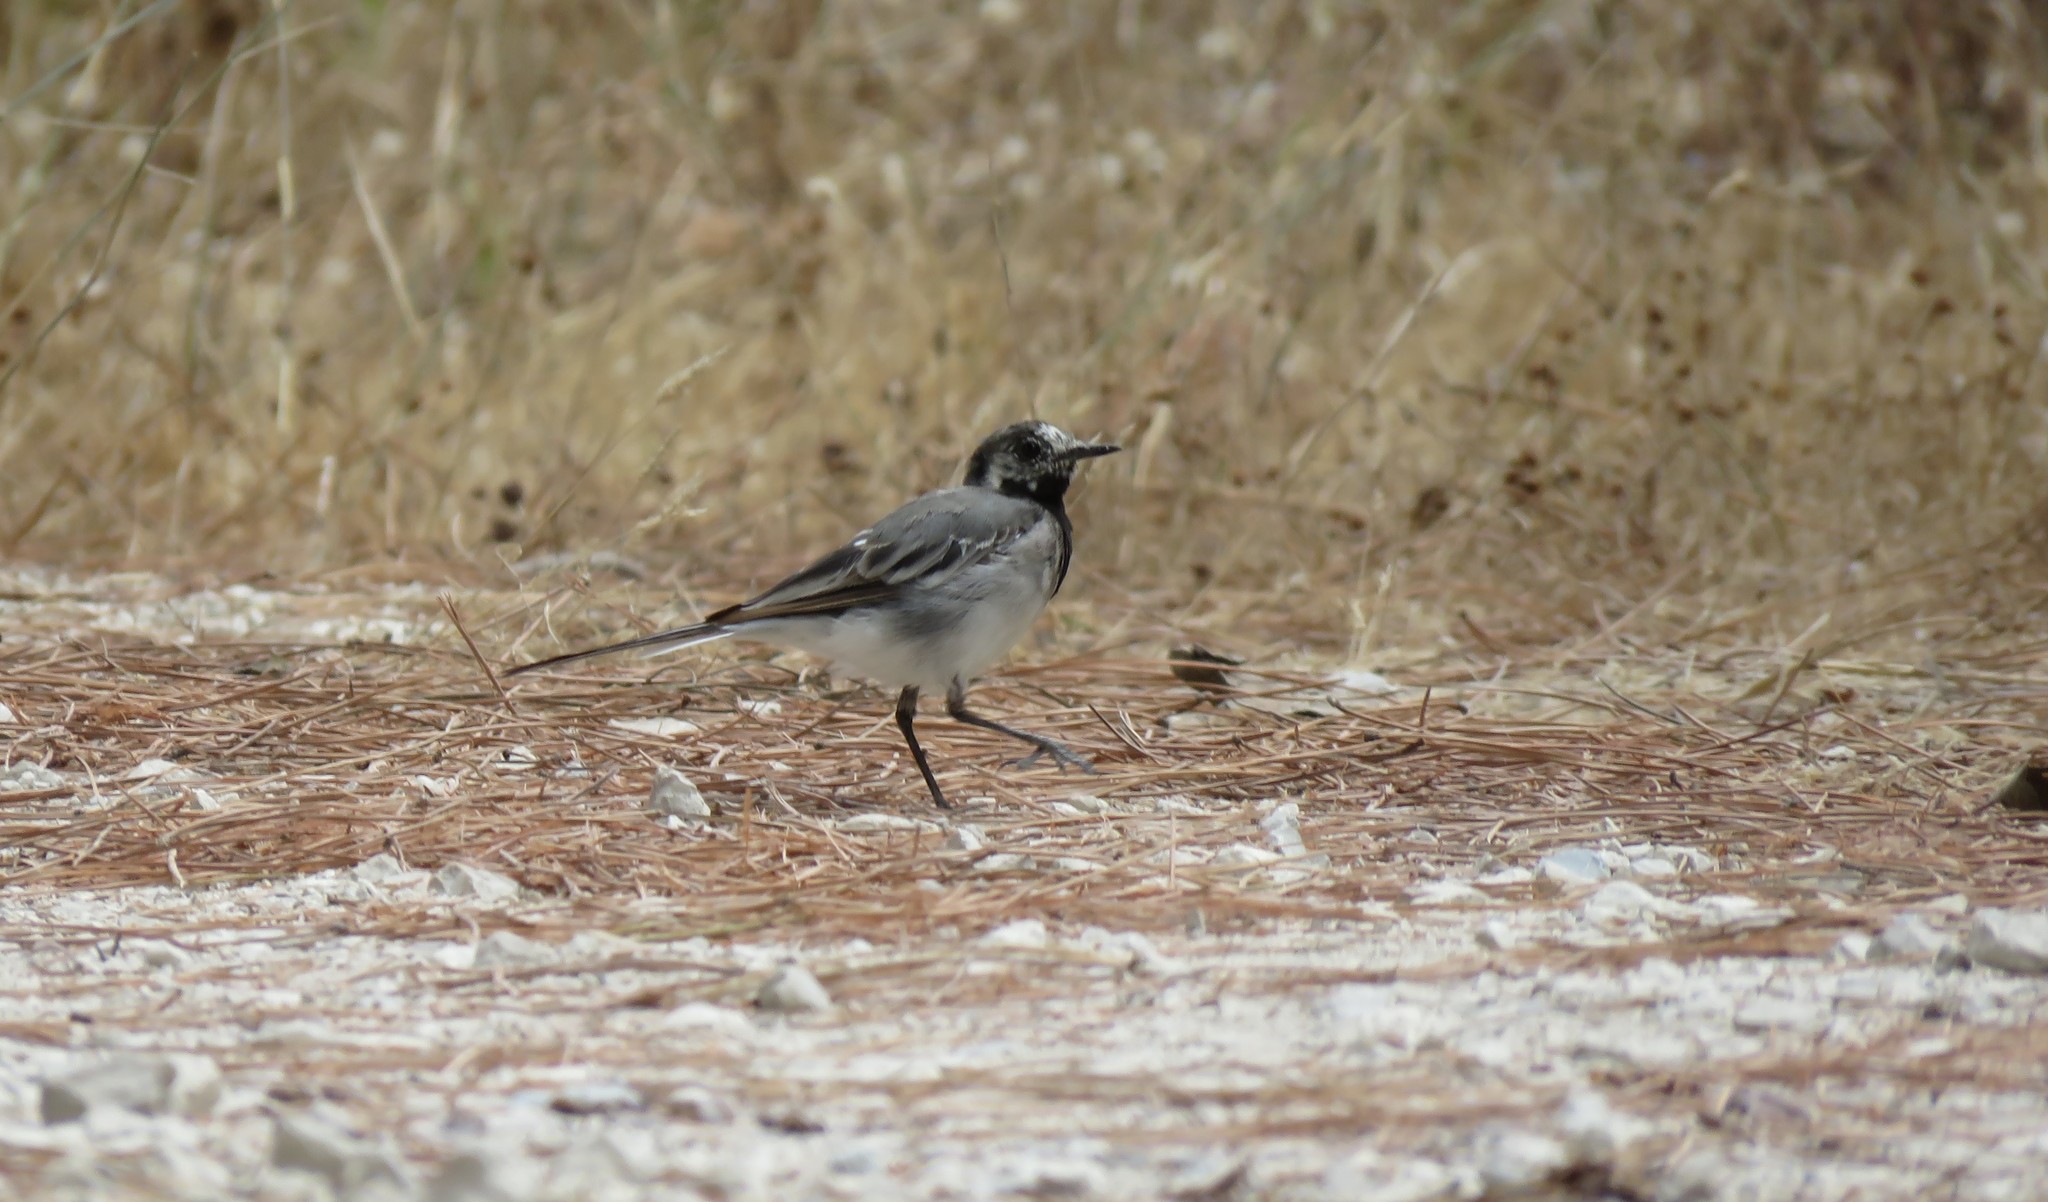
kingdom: Animalia
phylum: Chordata
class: Aves
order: Passeriformes
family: Motacillidae
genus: Motacilla
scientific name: Motacilla alba
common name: White wagtail
